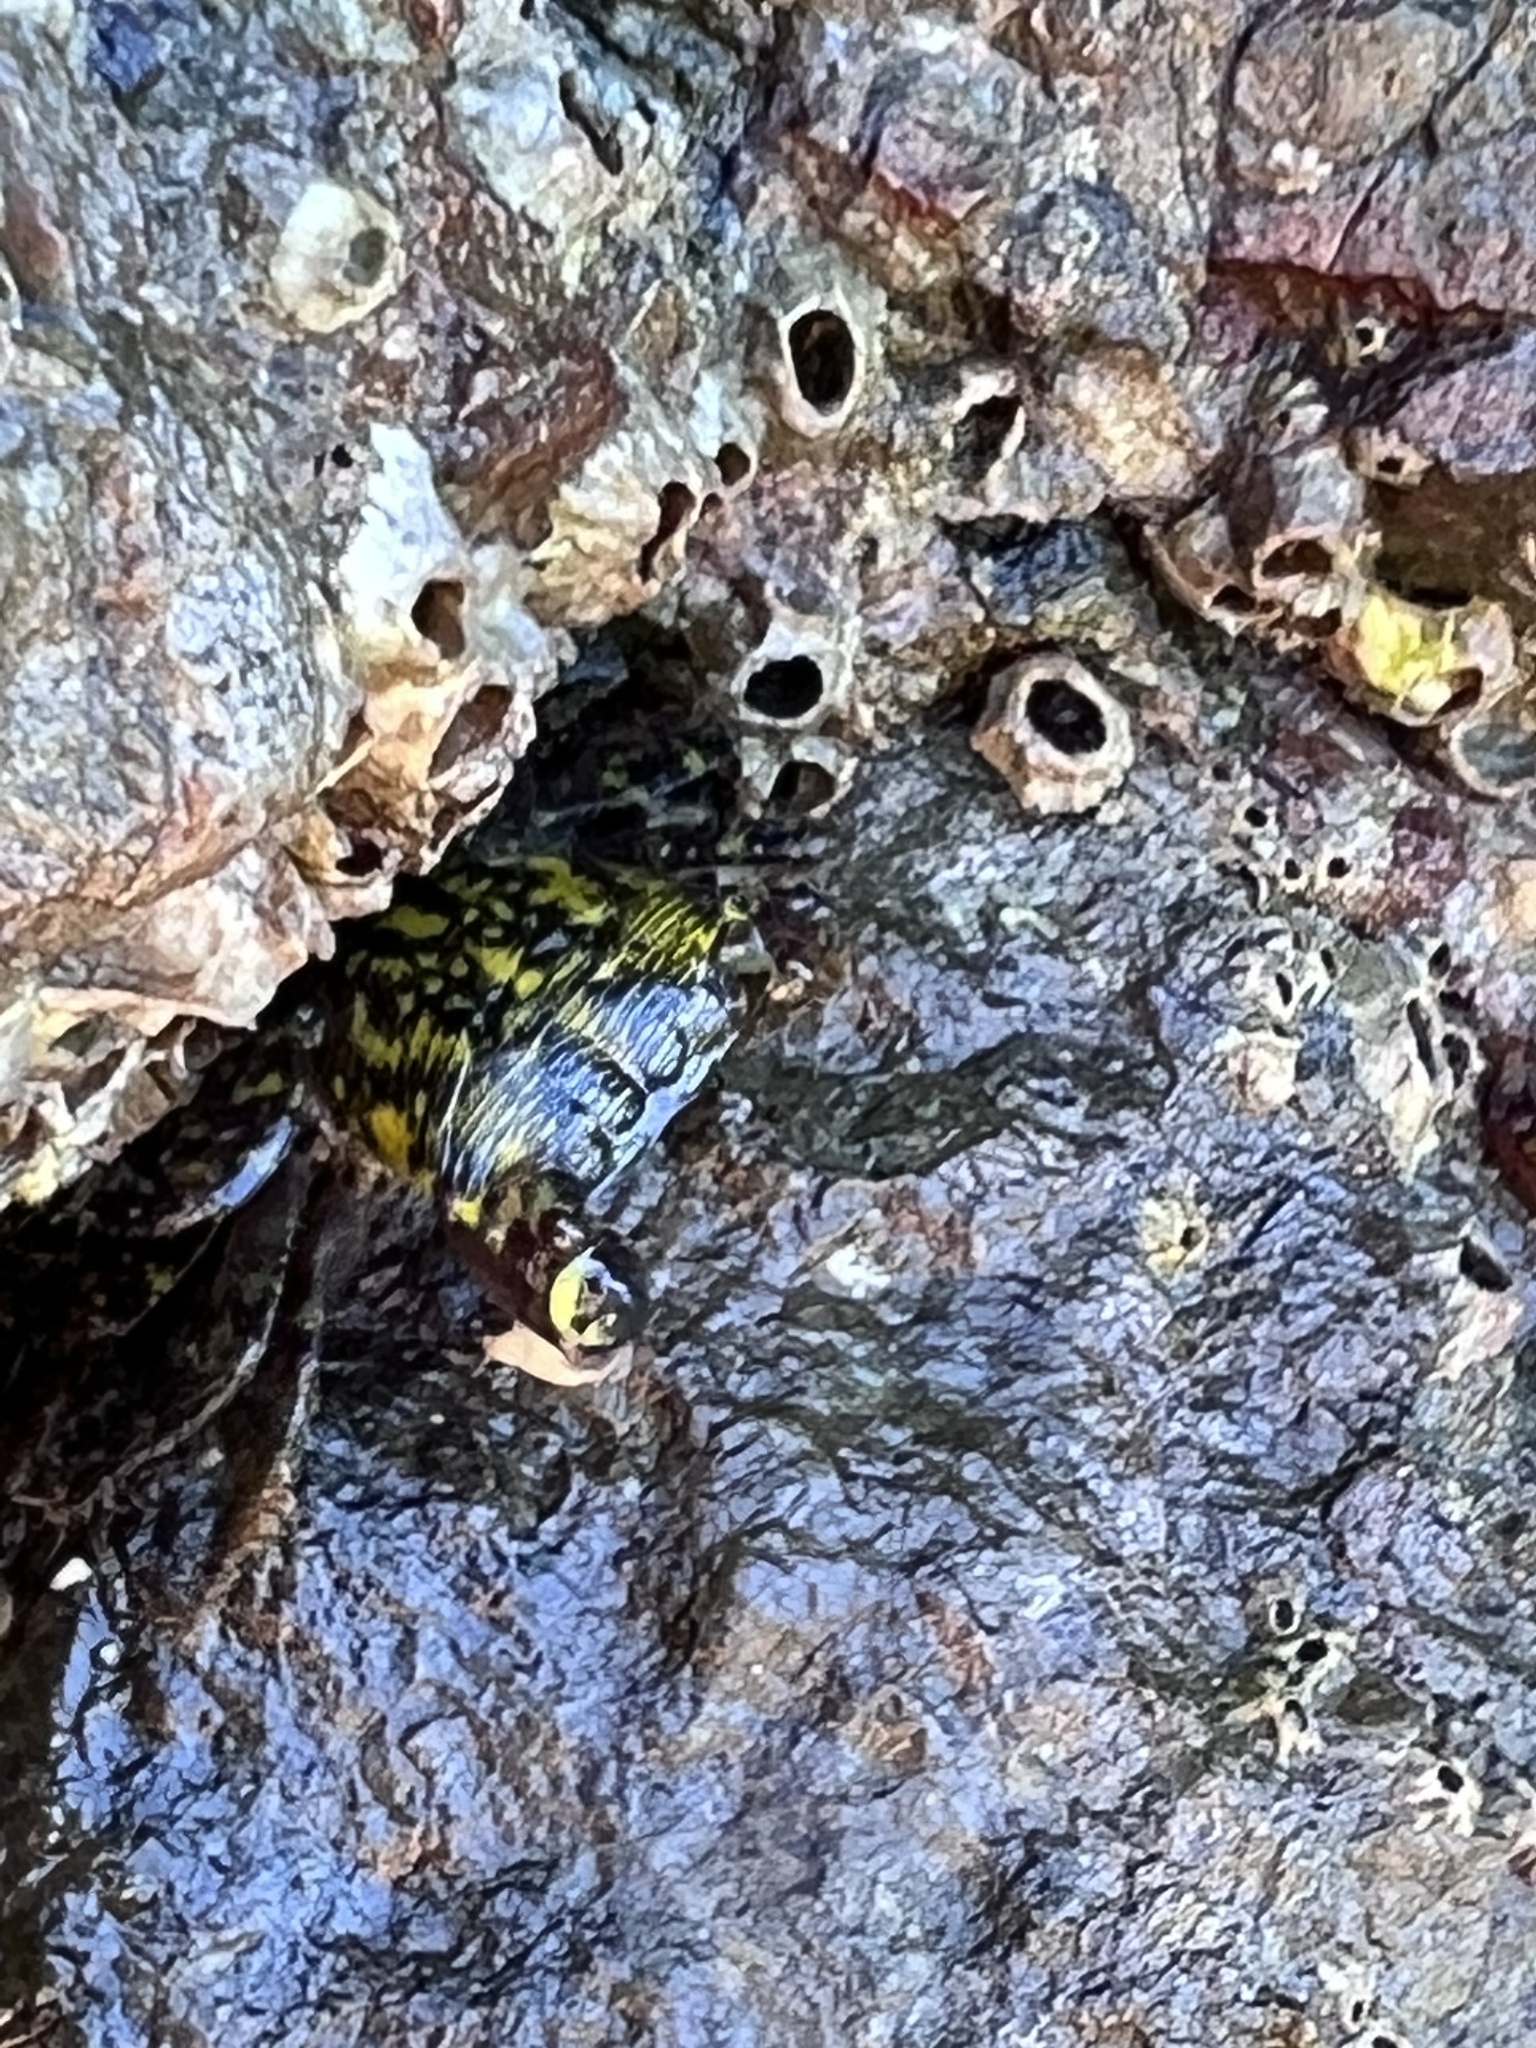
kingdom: Animalia
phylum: Arthropoda
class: Malacostraca
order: Decapoda
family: Grapsidae
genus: Pachygrapsus
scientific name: Pachygrapsus socius
